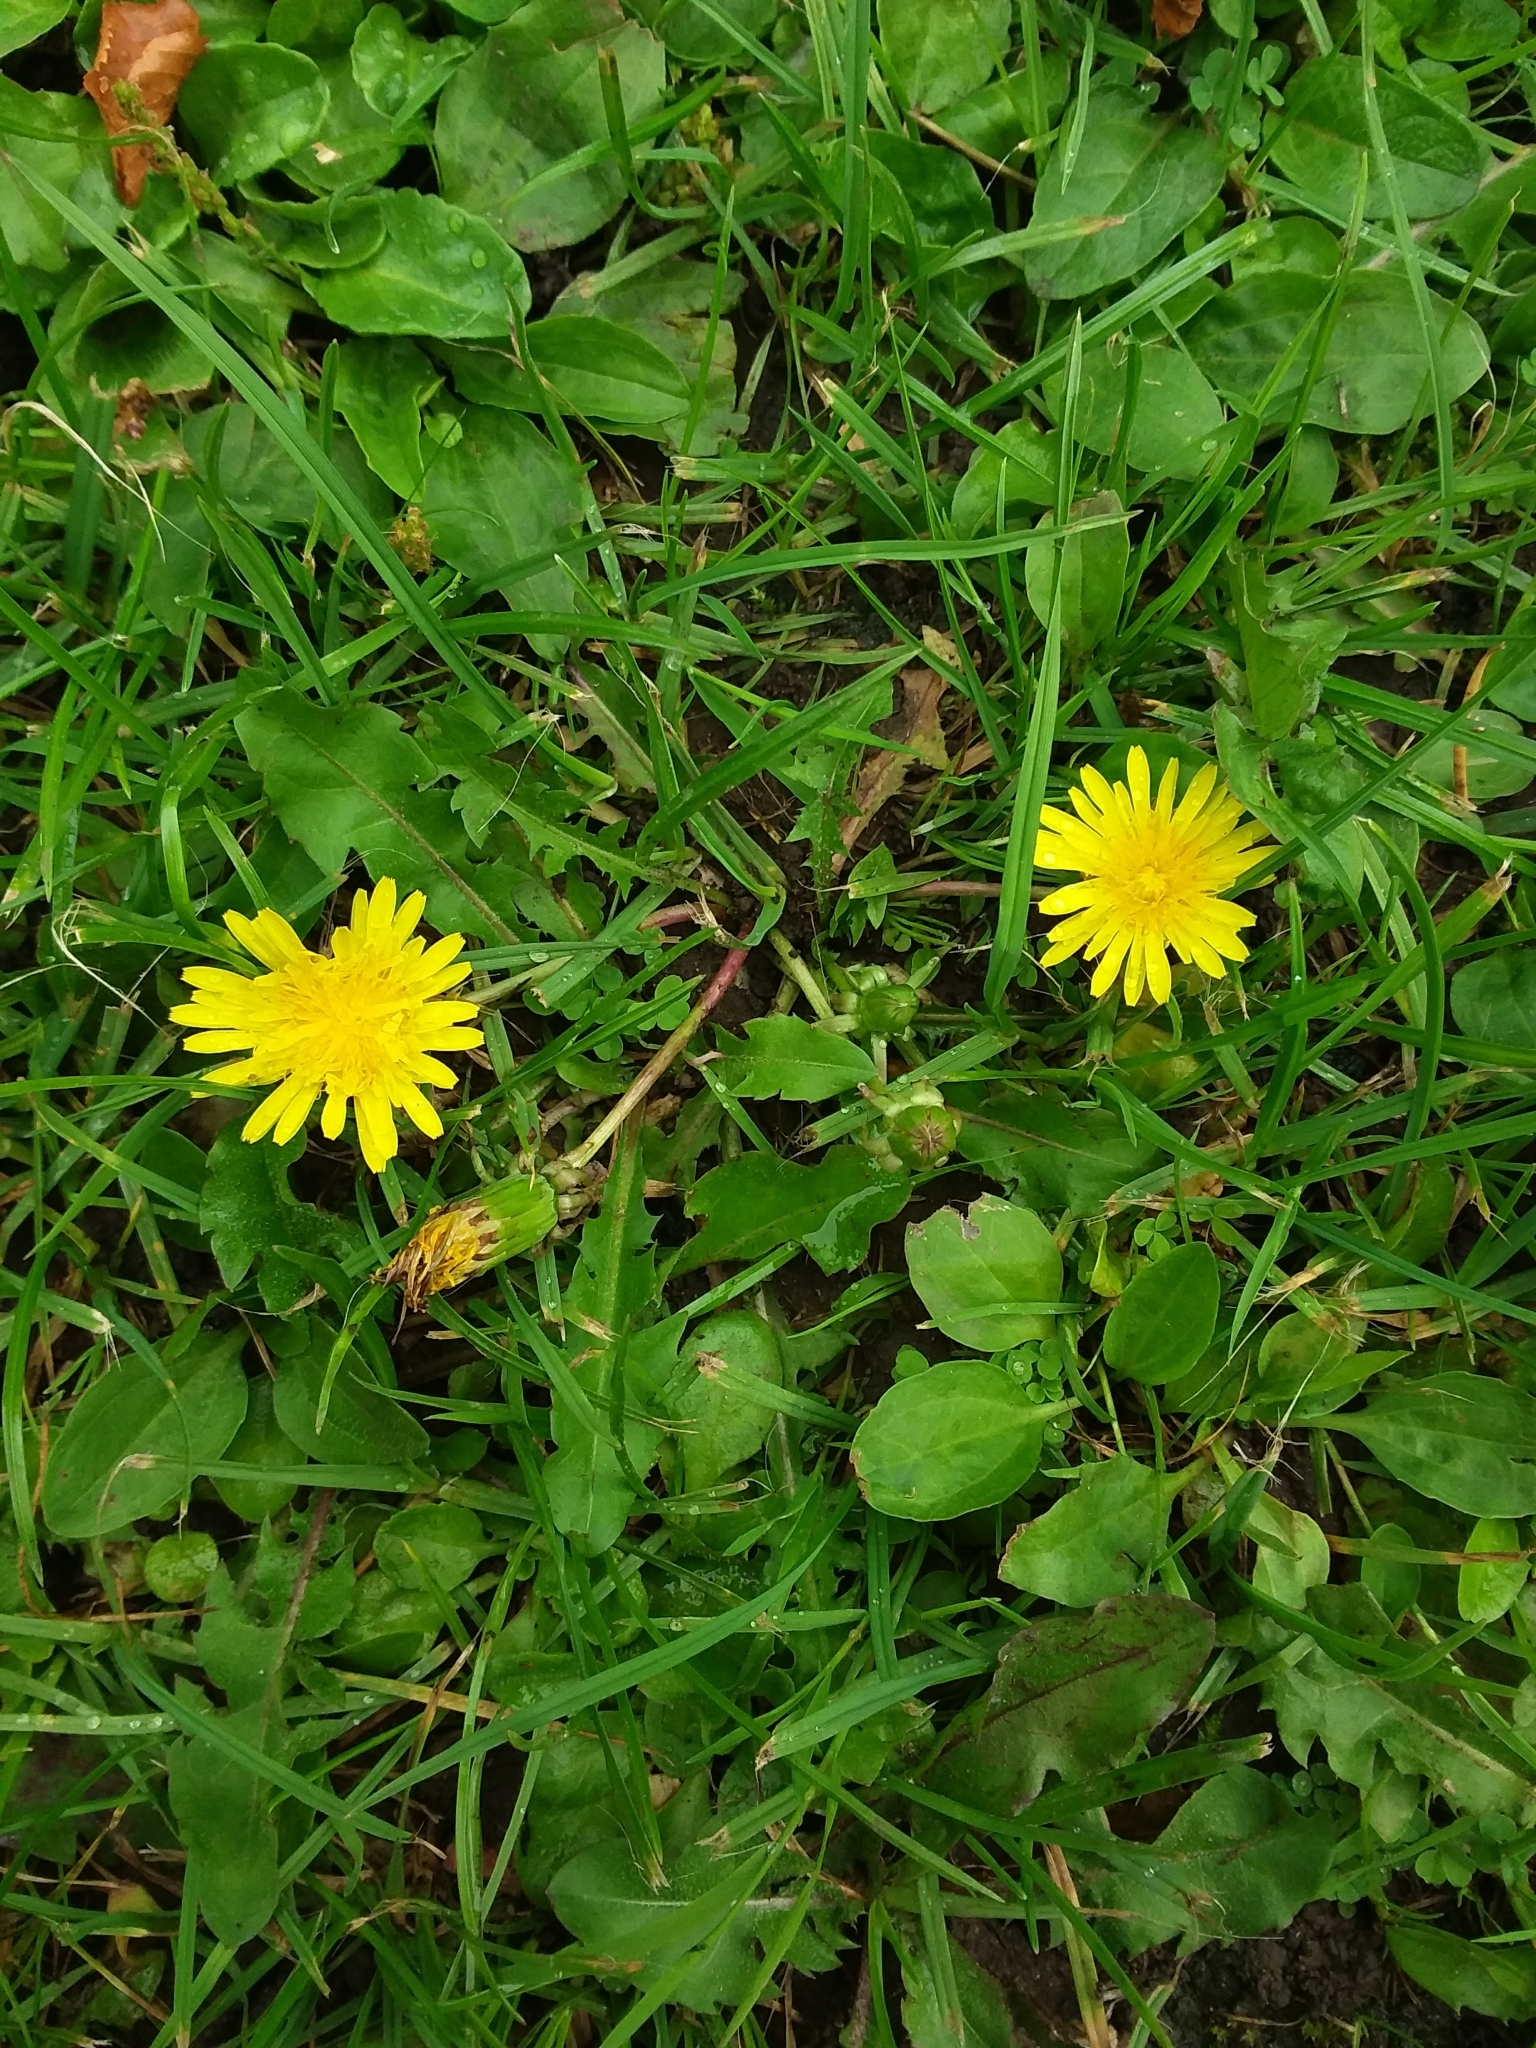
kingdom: Plantae
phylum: Tracheophyta
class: Magnoliopsida
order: Asterales
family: Asteraceae
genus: Taraxacum
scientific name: Taraxacum officinale
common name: Common dandelion
